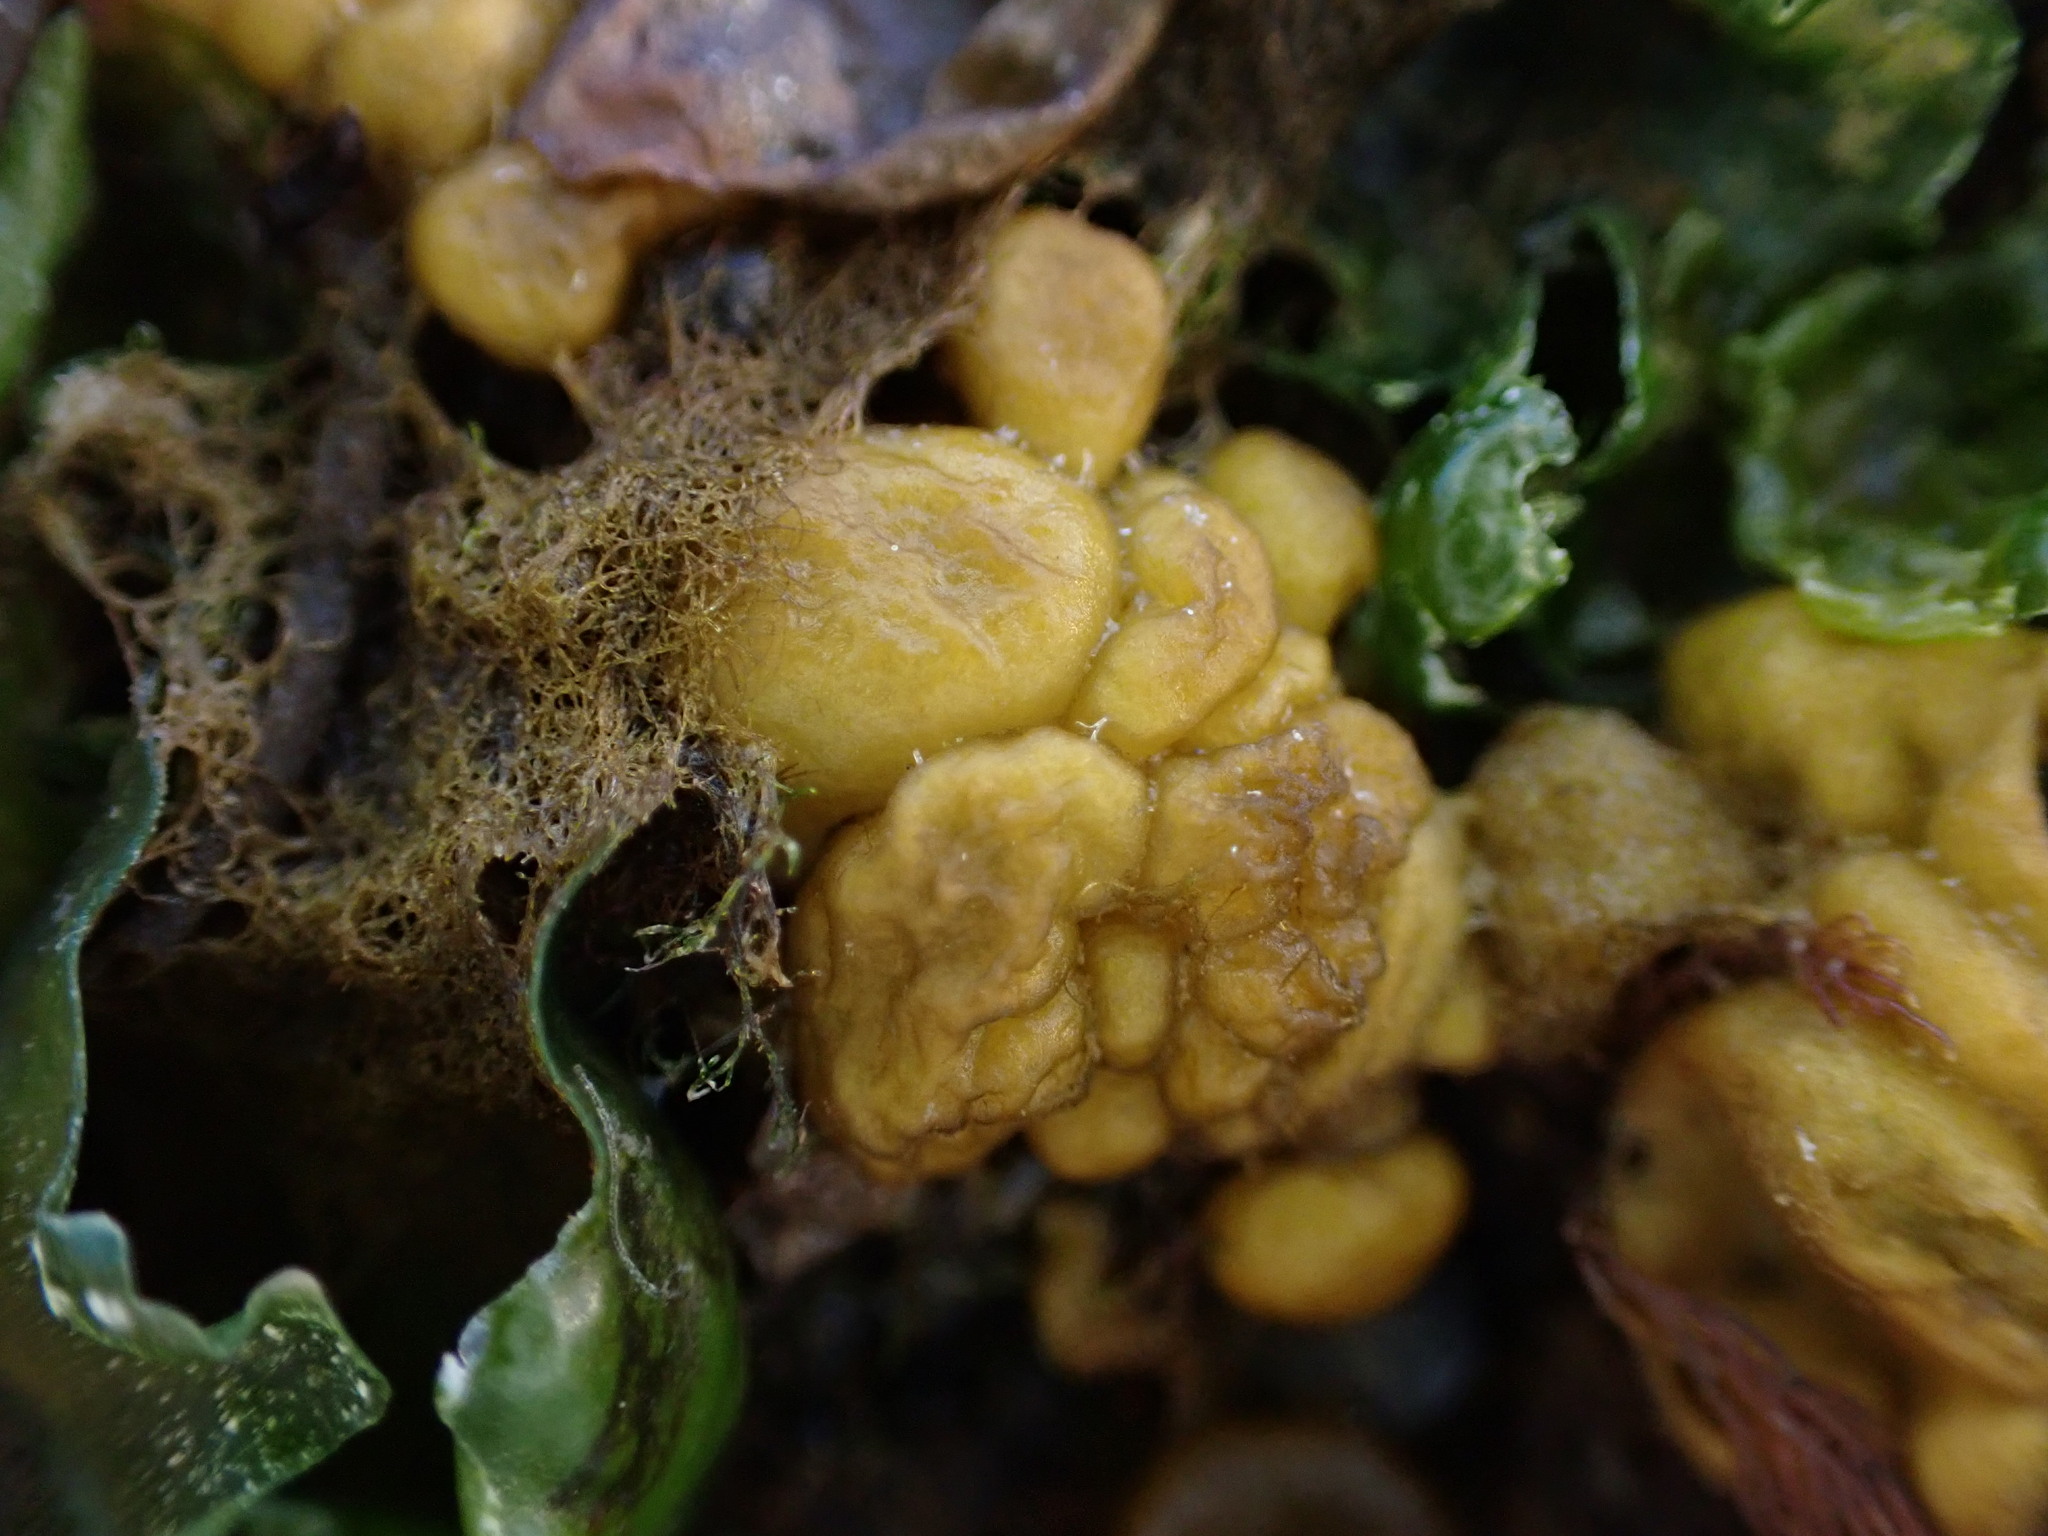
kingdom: Chromista
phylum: Ochrophyta
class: Phaeophyceae
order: Ectocarpales
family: Chordariaceae
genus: Leathesia
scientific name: Leathesia marina
